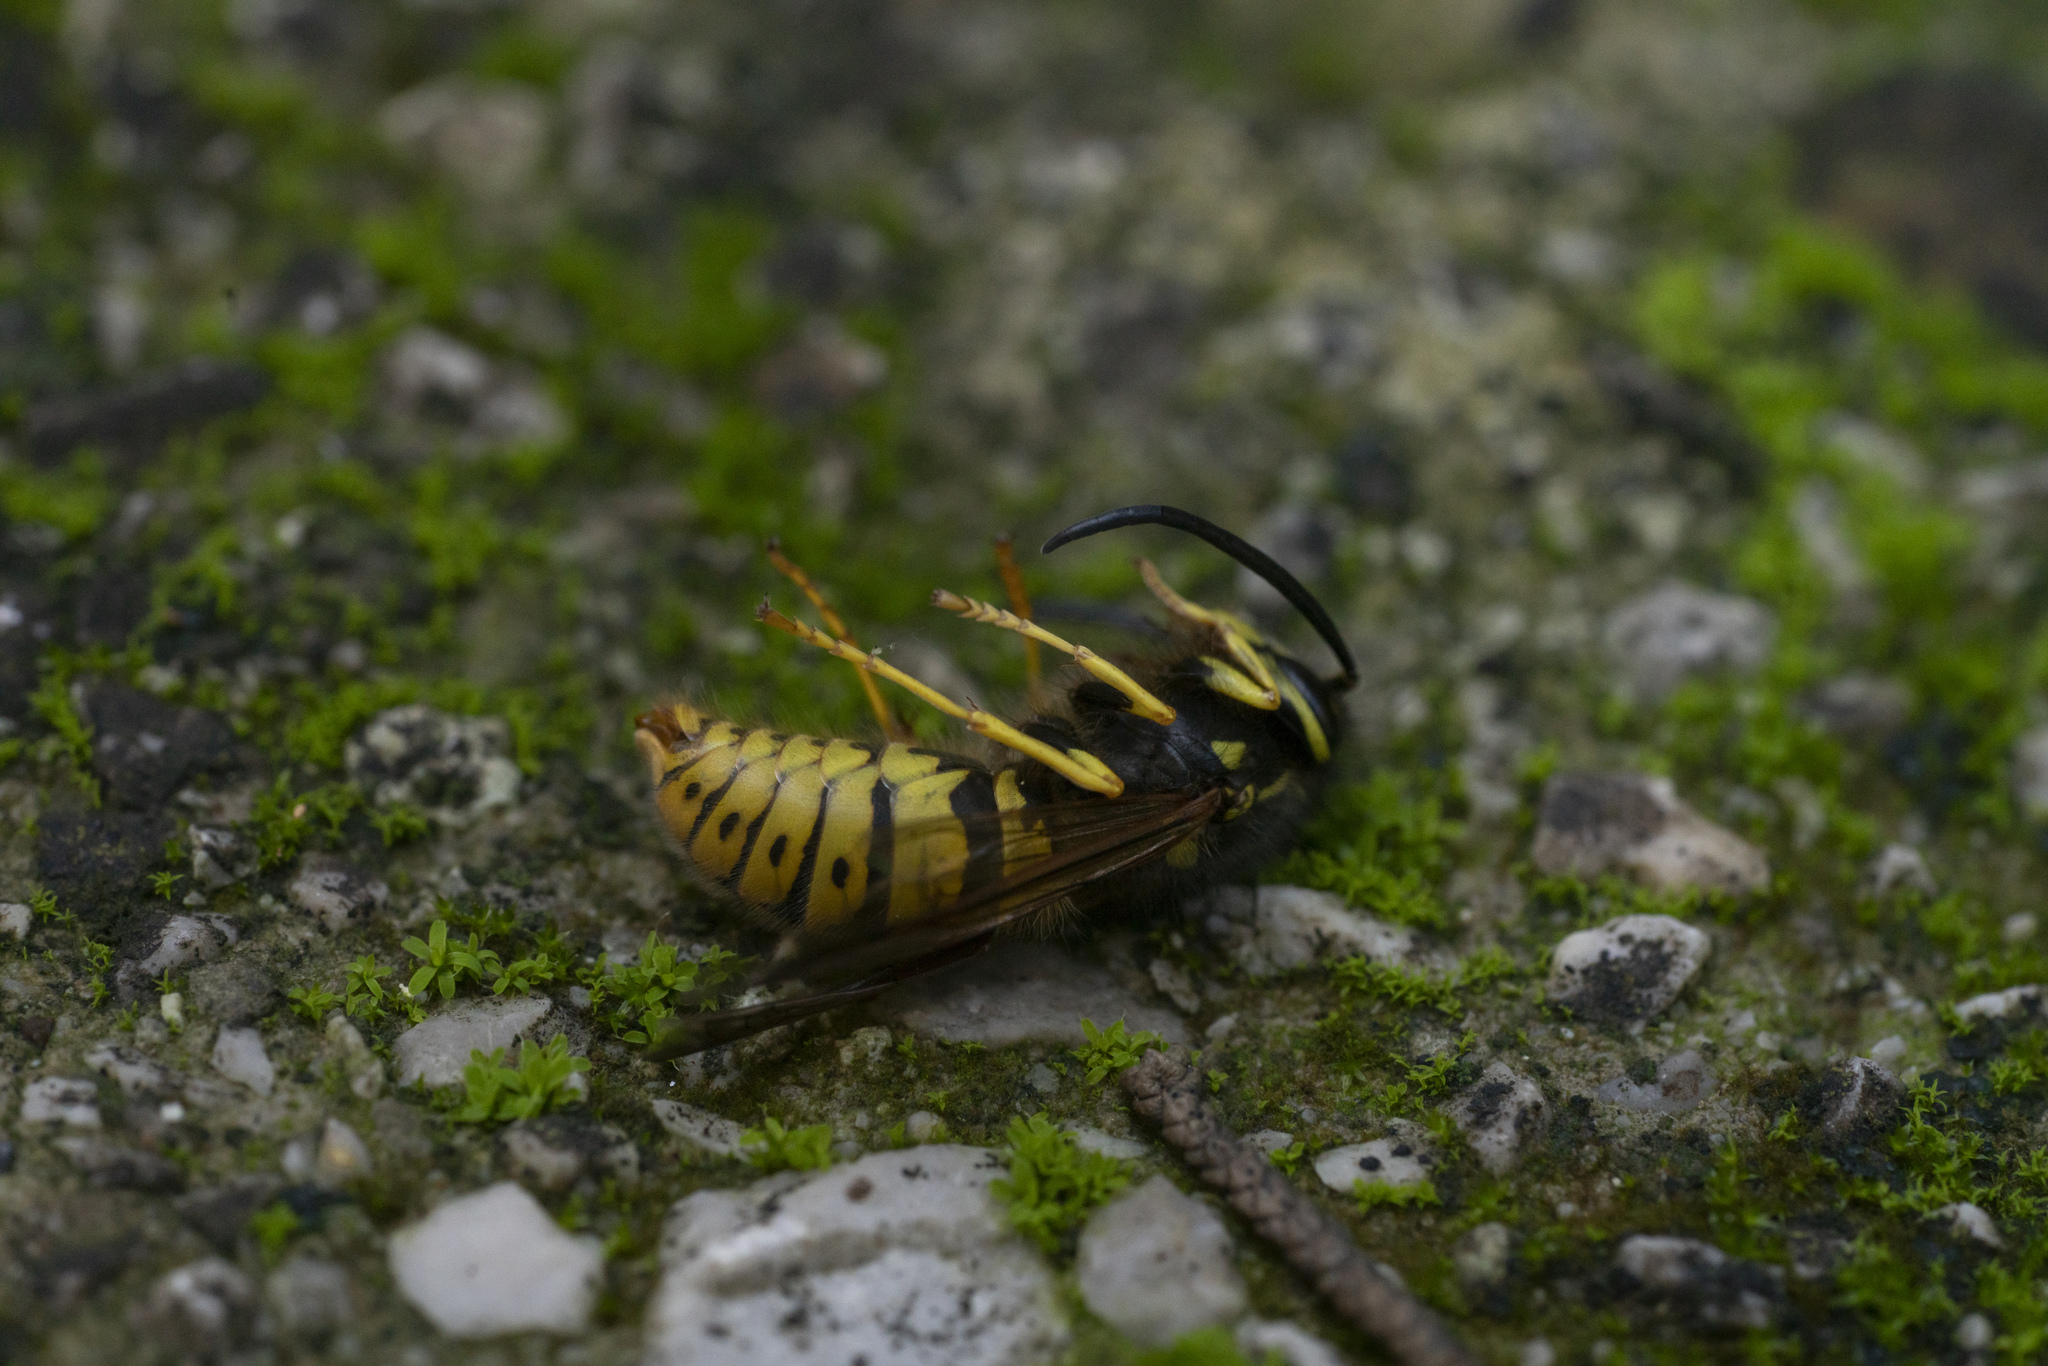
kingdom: Animalia
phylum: Arthropoda
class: Insecta
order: Hymenoptera
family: Vespidae
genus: Vespula
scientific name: Vespula germanica
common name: German wasp
